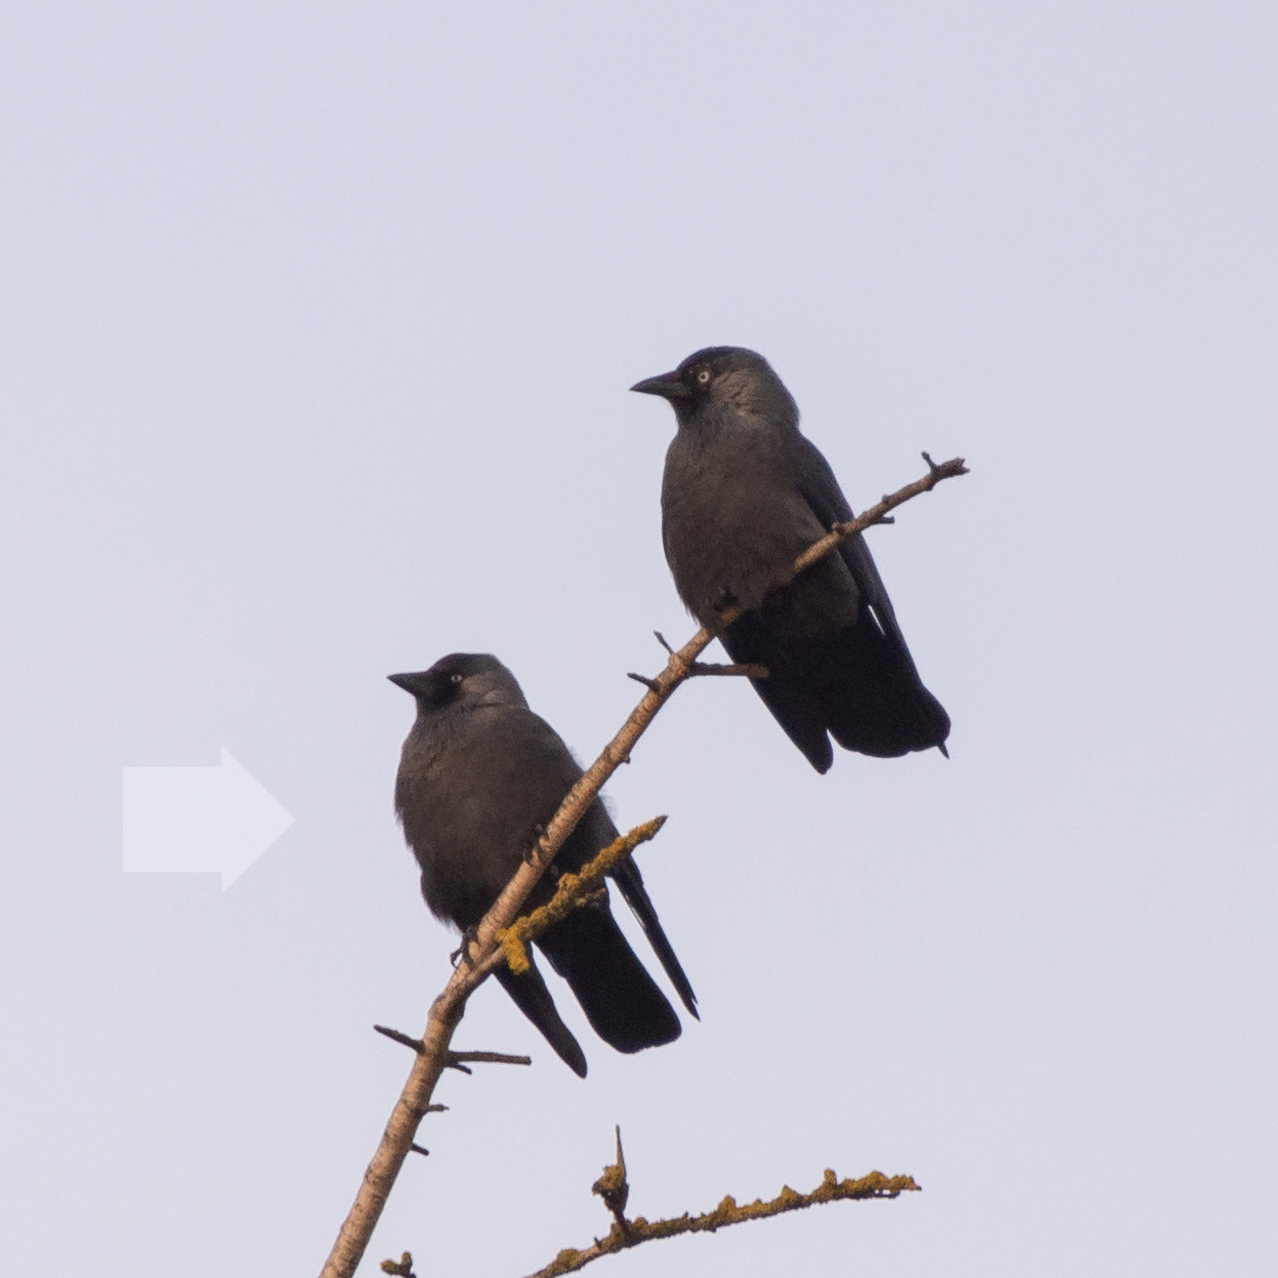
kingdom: Animalia
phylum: Chordata
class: Aves
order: Passeriformes
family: Corvidae
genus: Coloeus
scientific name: Coloeus monedula
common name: Western jackdaw
